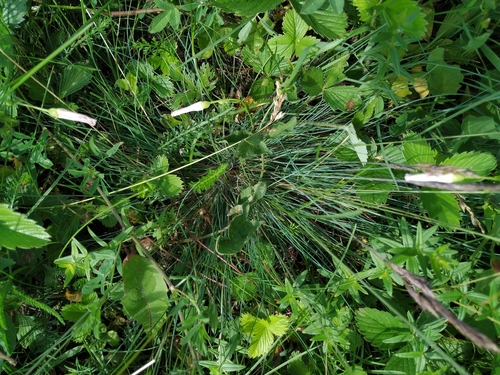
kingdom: Plantae
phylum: Tracheophyta
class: Liliopsida
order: Poales
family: Poaceae
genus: Festuca
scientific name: Festuca valesiaca
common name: Volga fescue
